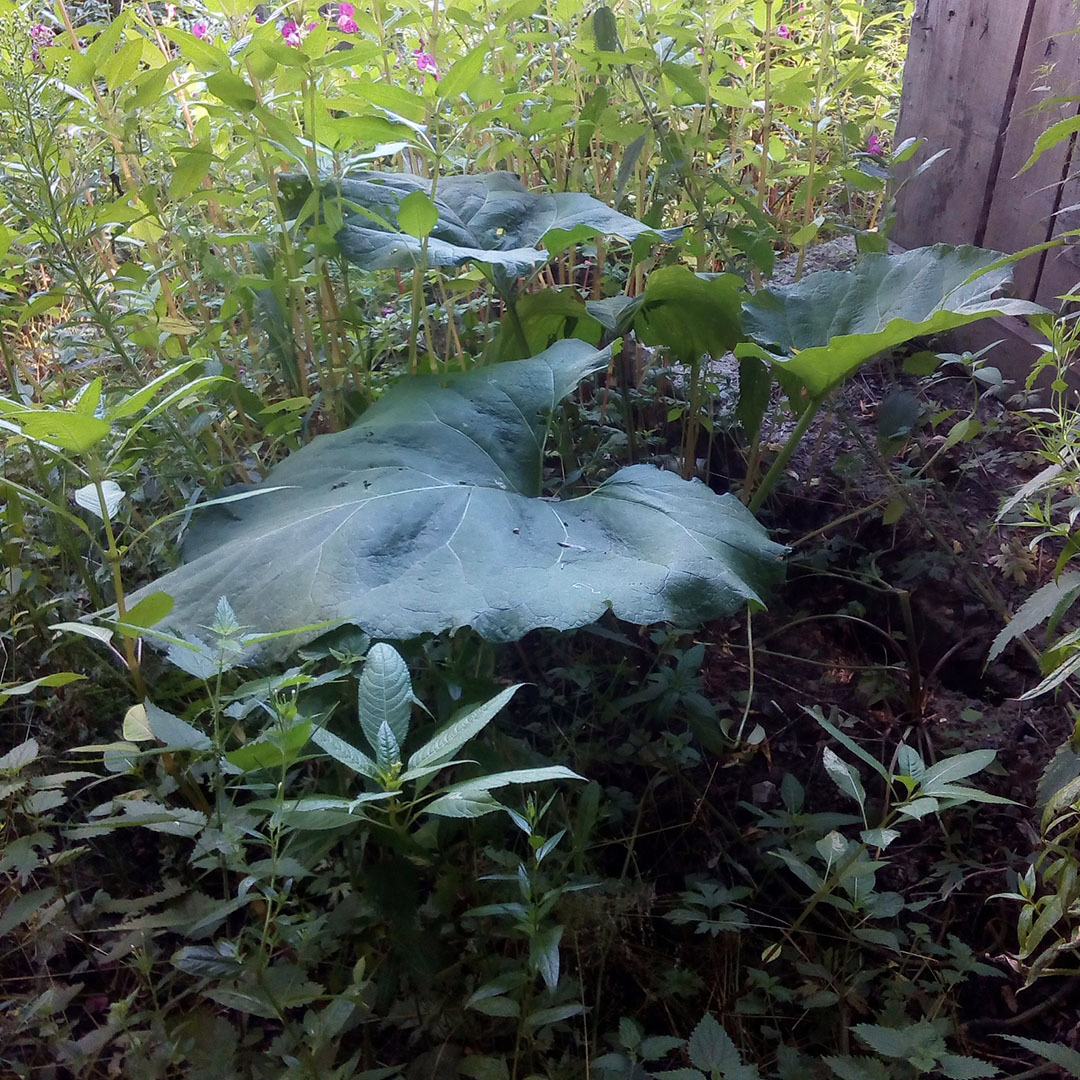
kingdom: Plantae
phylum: Tracheophyta
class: Magnoliopsida
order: Asterales
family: Asteraceae
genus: Arctium
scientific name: Arctium
